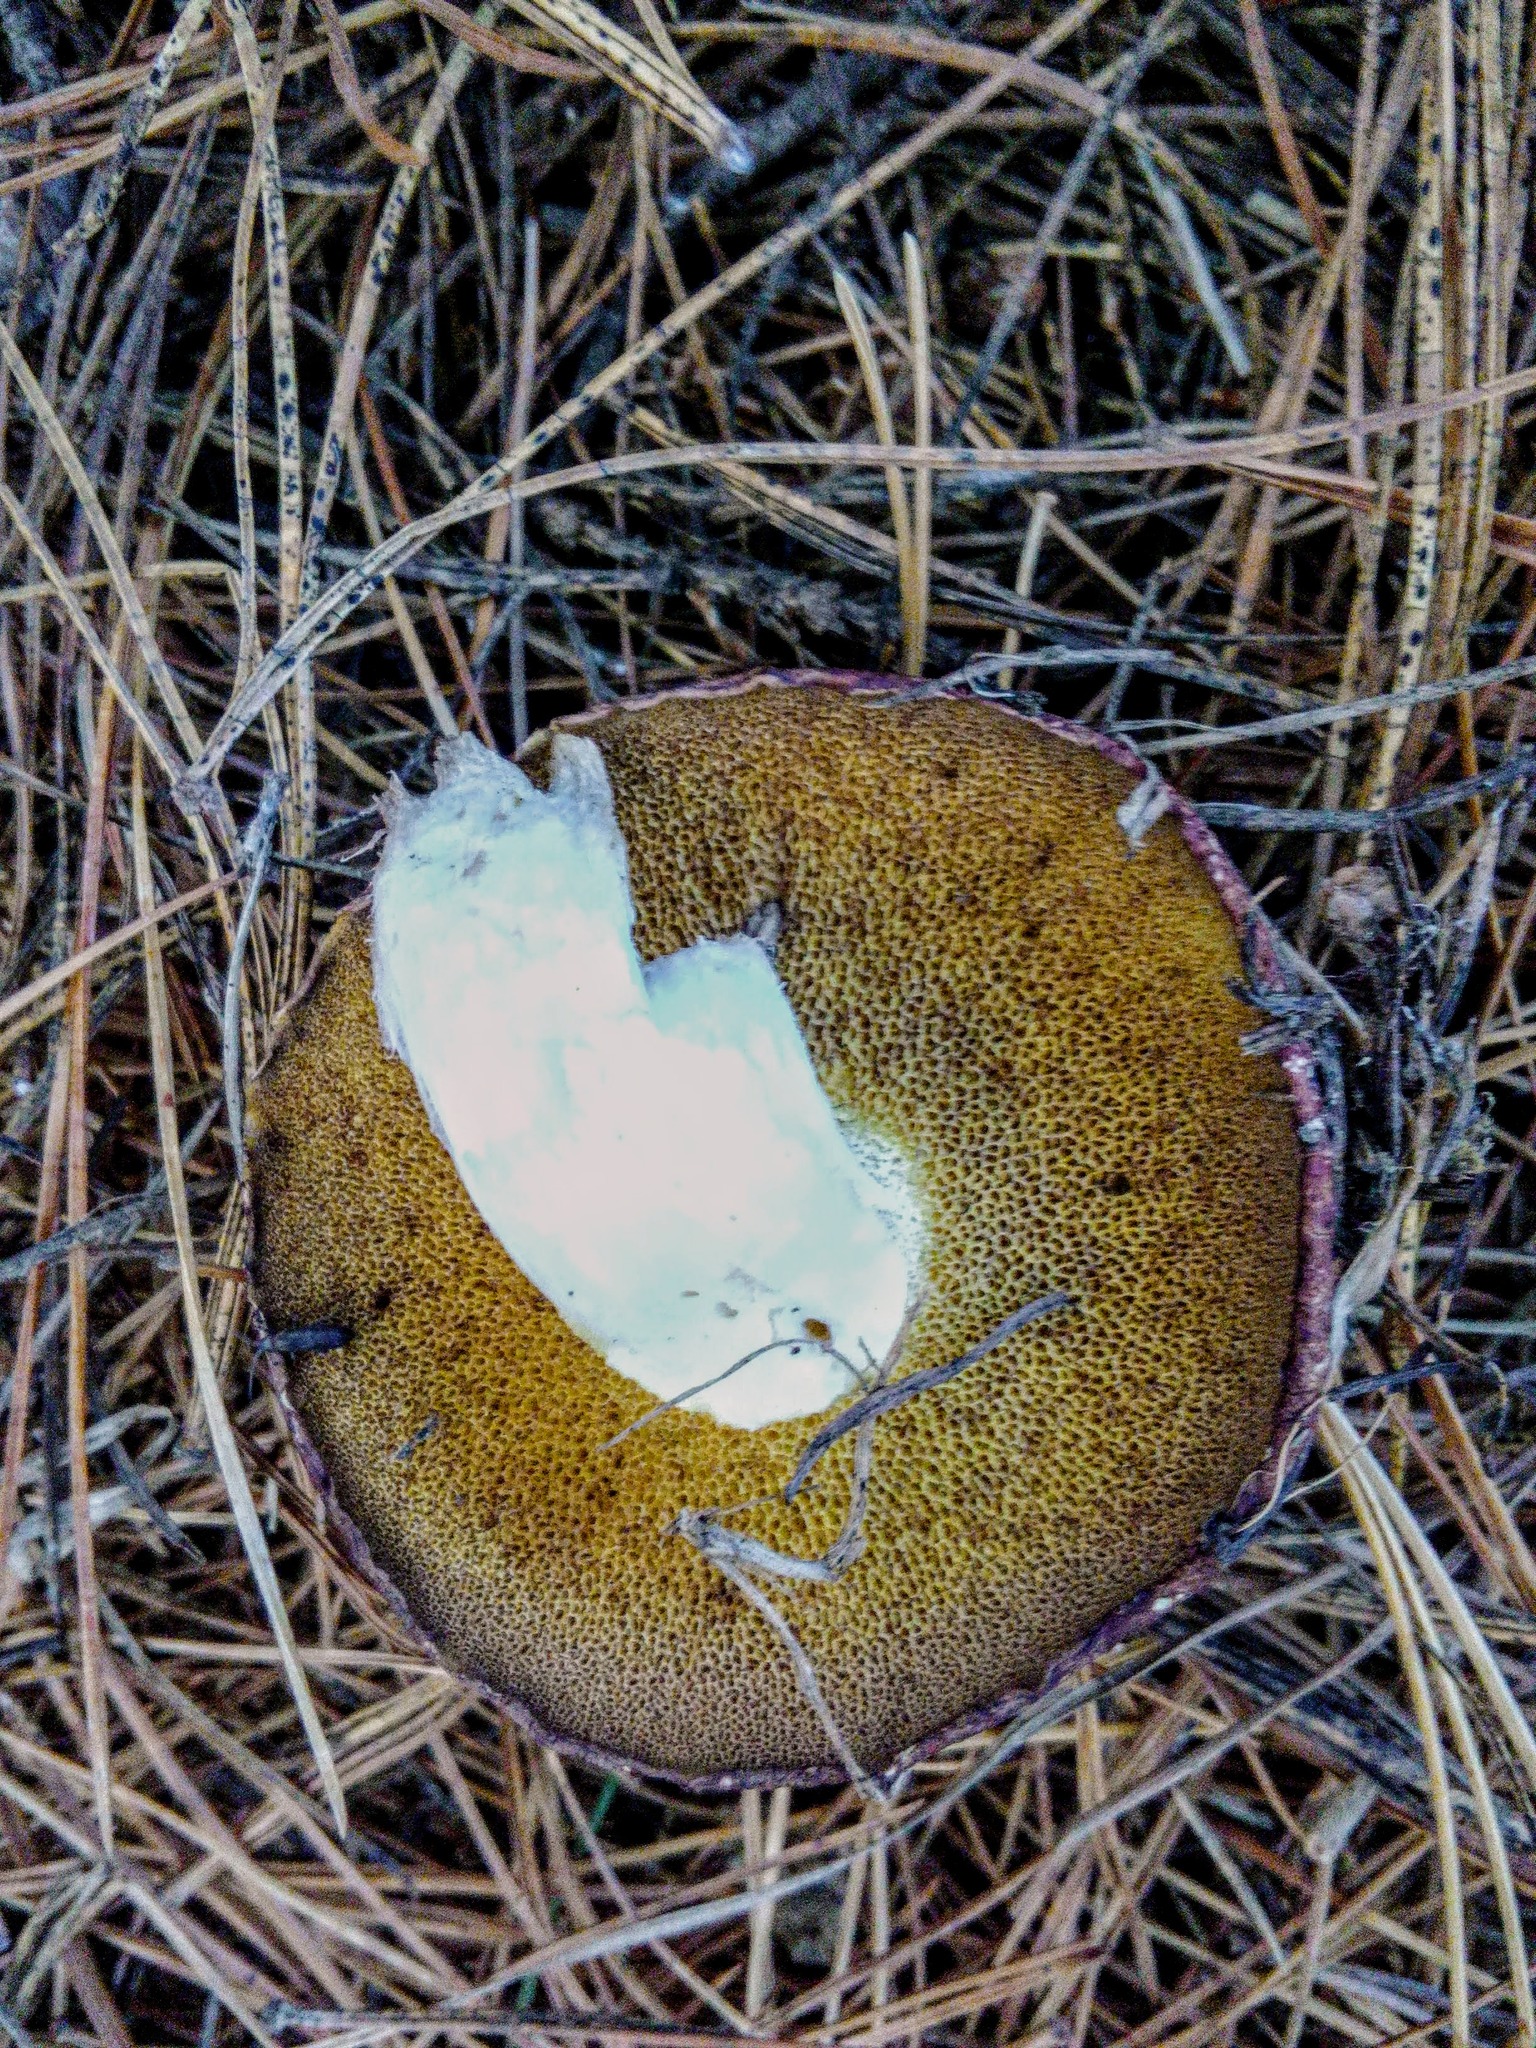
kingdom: Fungi
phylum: Basidiomycota
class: Agaricomycetes
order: Boletales
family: Suillaceae
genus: Suillus
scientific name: Suillus placidus
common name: Slippery white bolete
